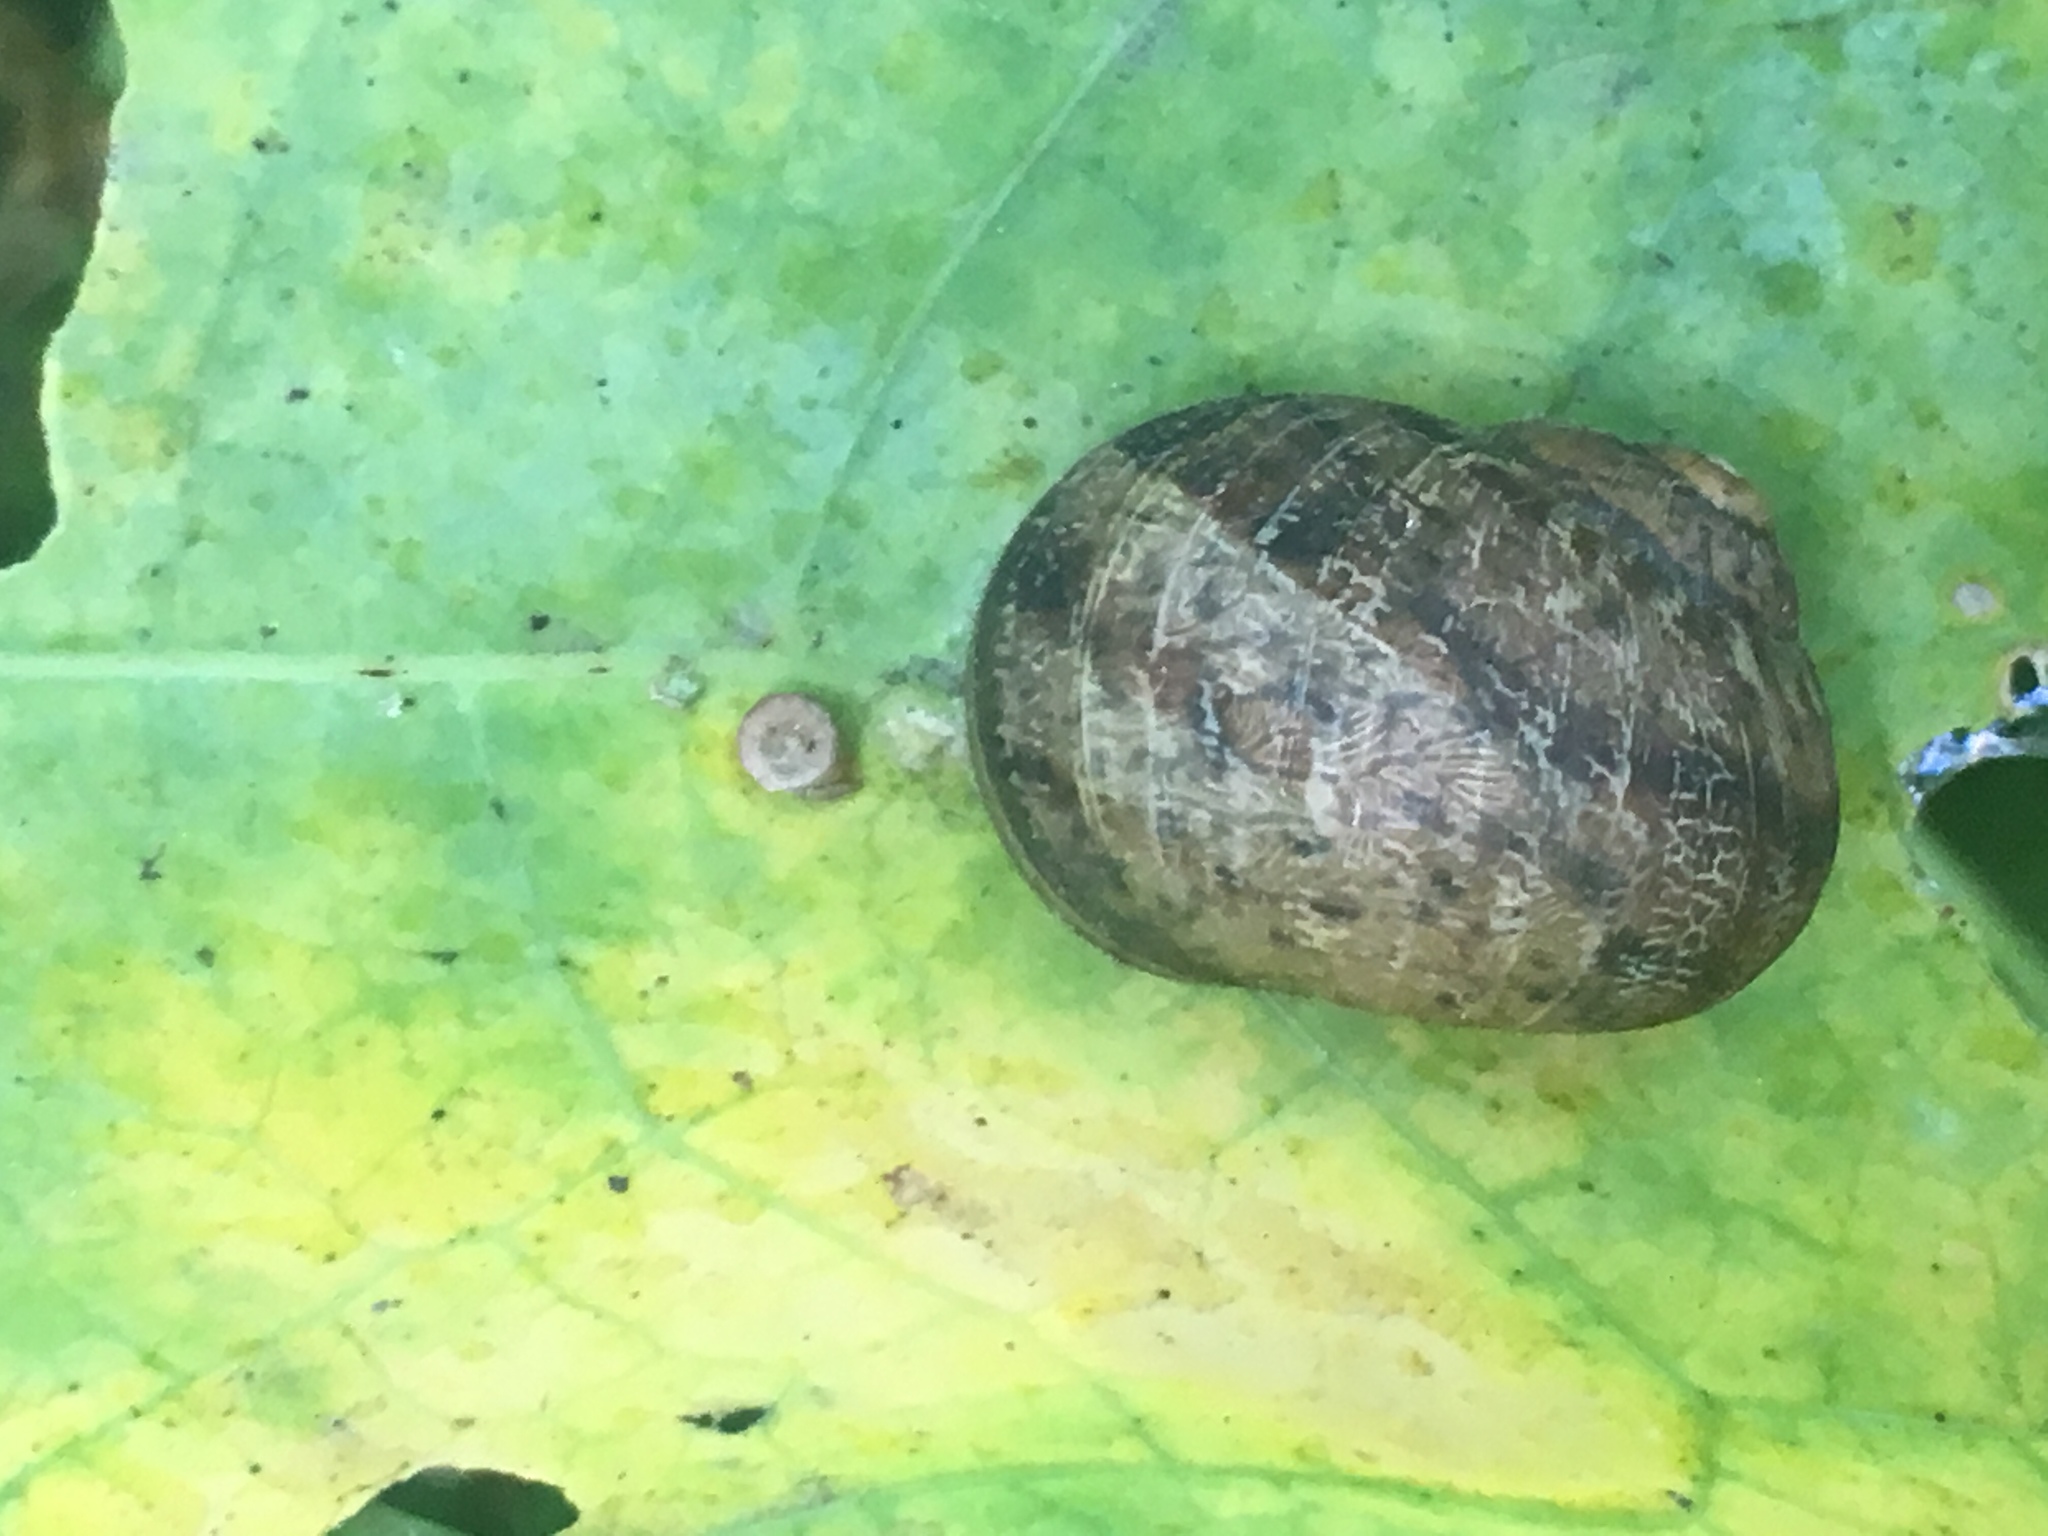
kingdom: Animalia
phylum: Mollusca
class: Gastropoda
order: Stylommatophora
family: Helicidae
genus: Cornu
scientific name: Cornu aspersum
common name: Brown garden snail
